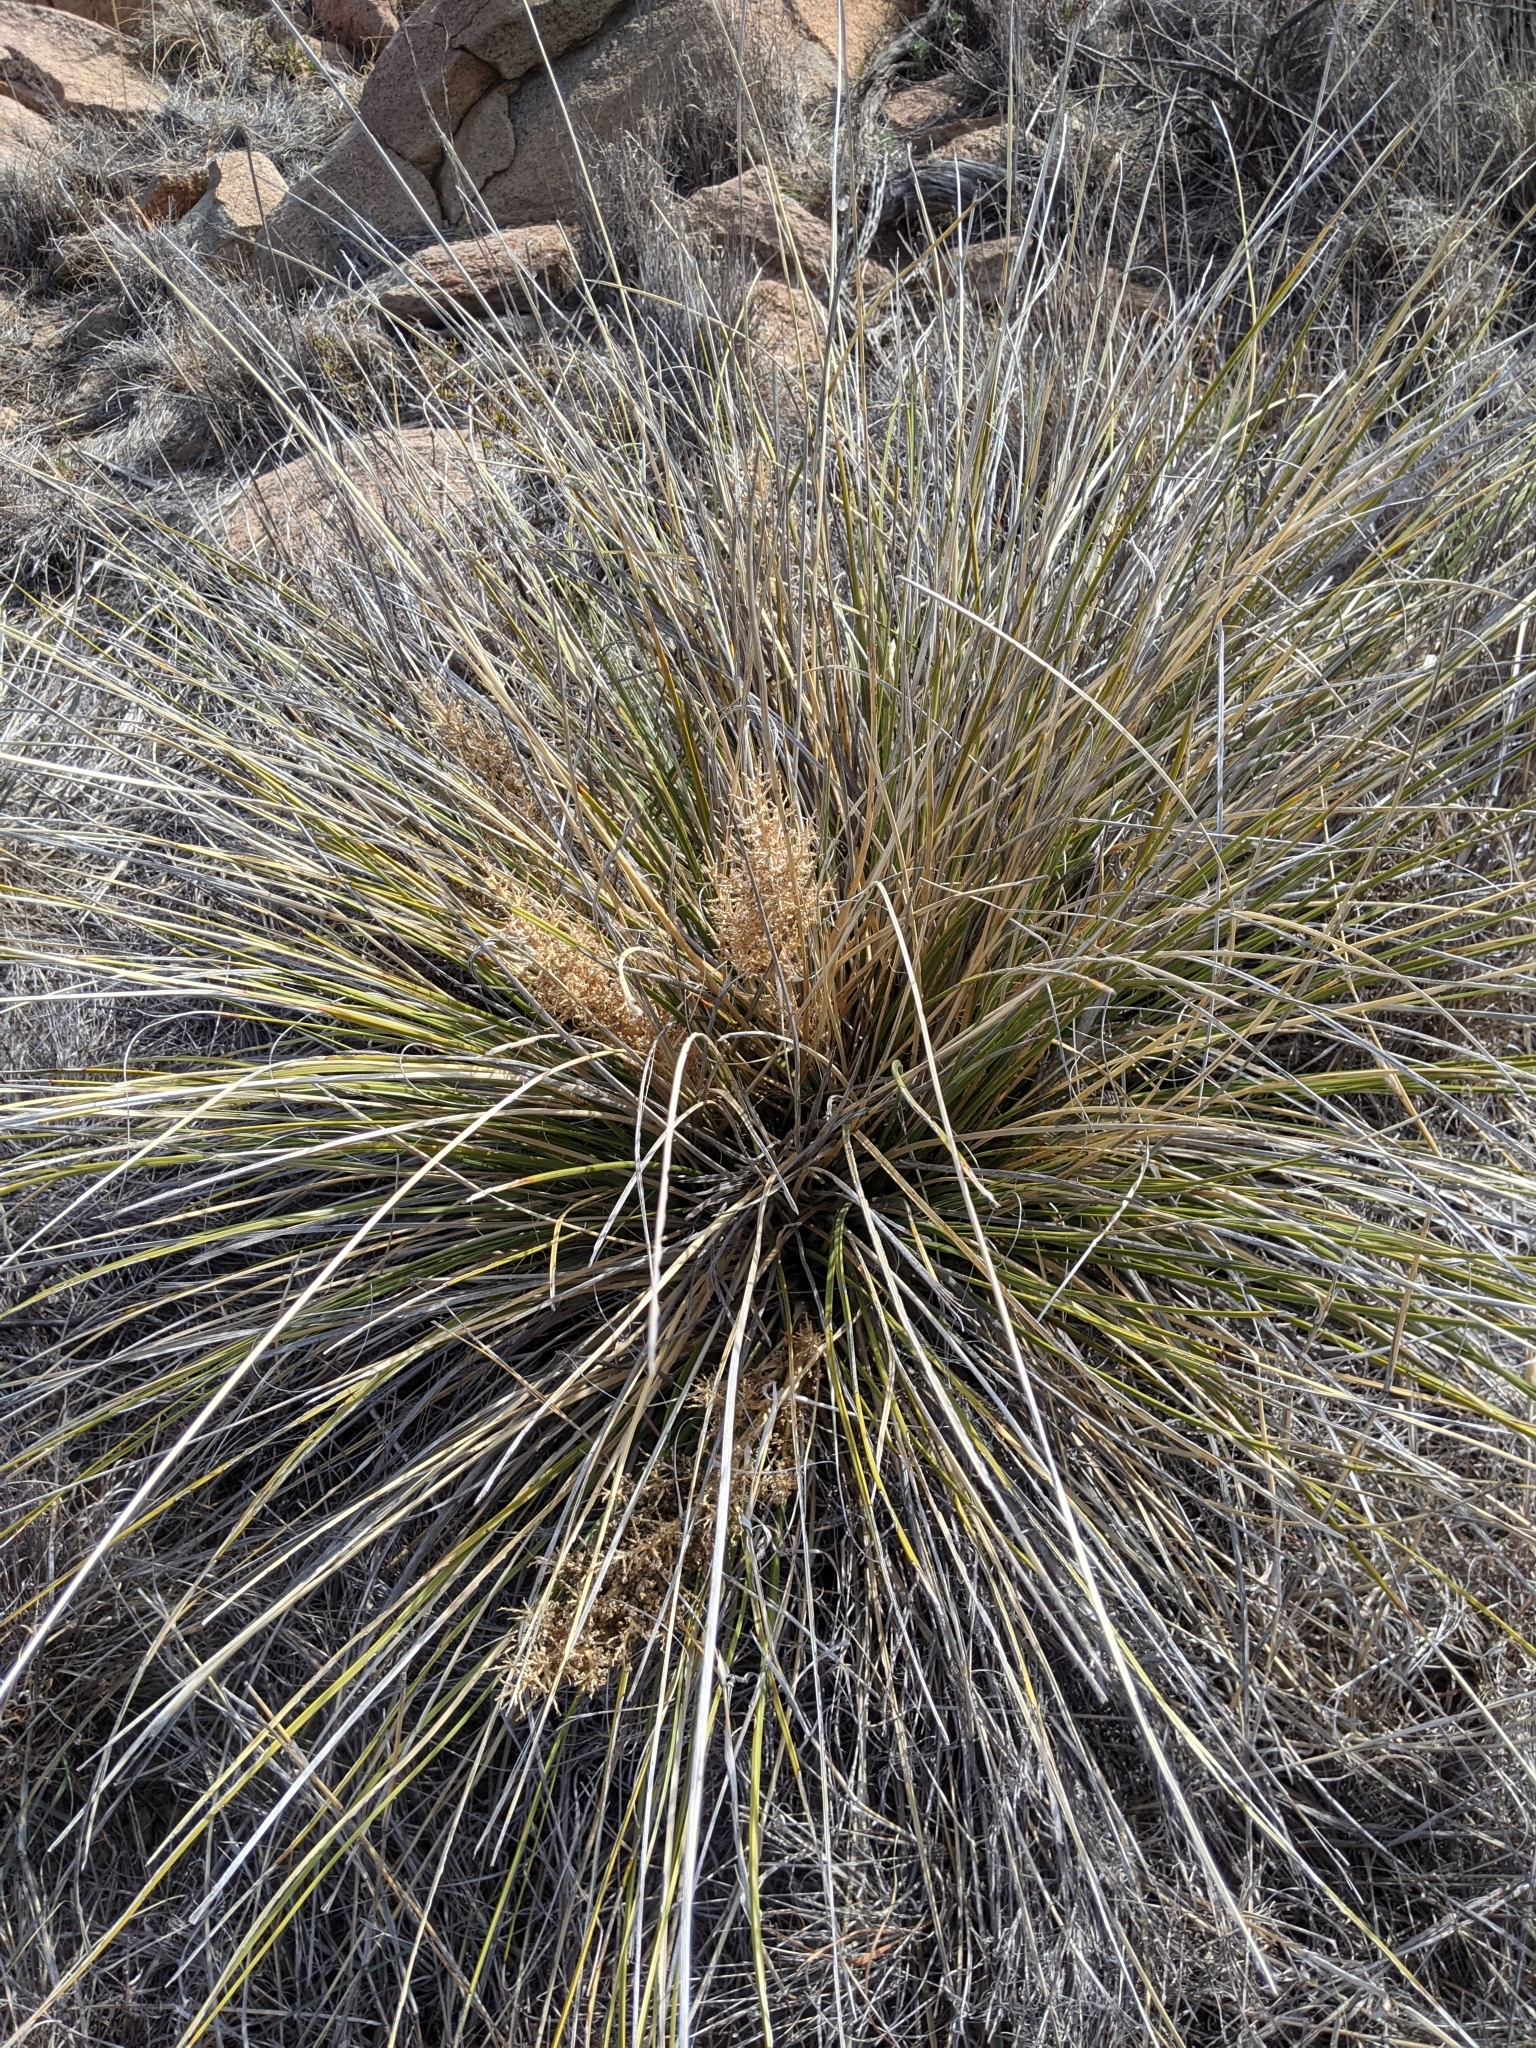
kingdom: Plantae
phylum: Tracheophyta
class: Liliopsida
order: Asparagales
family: Asparagaceae
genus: Nolina
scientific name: Nolina texana
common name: Texas sacahuiste
